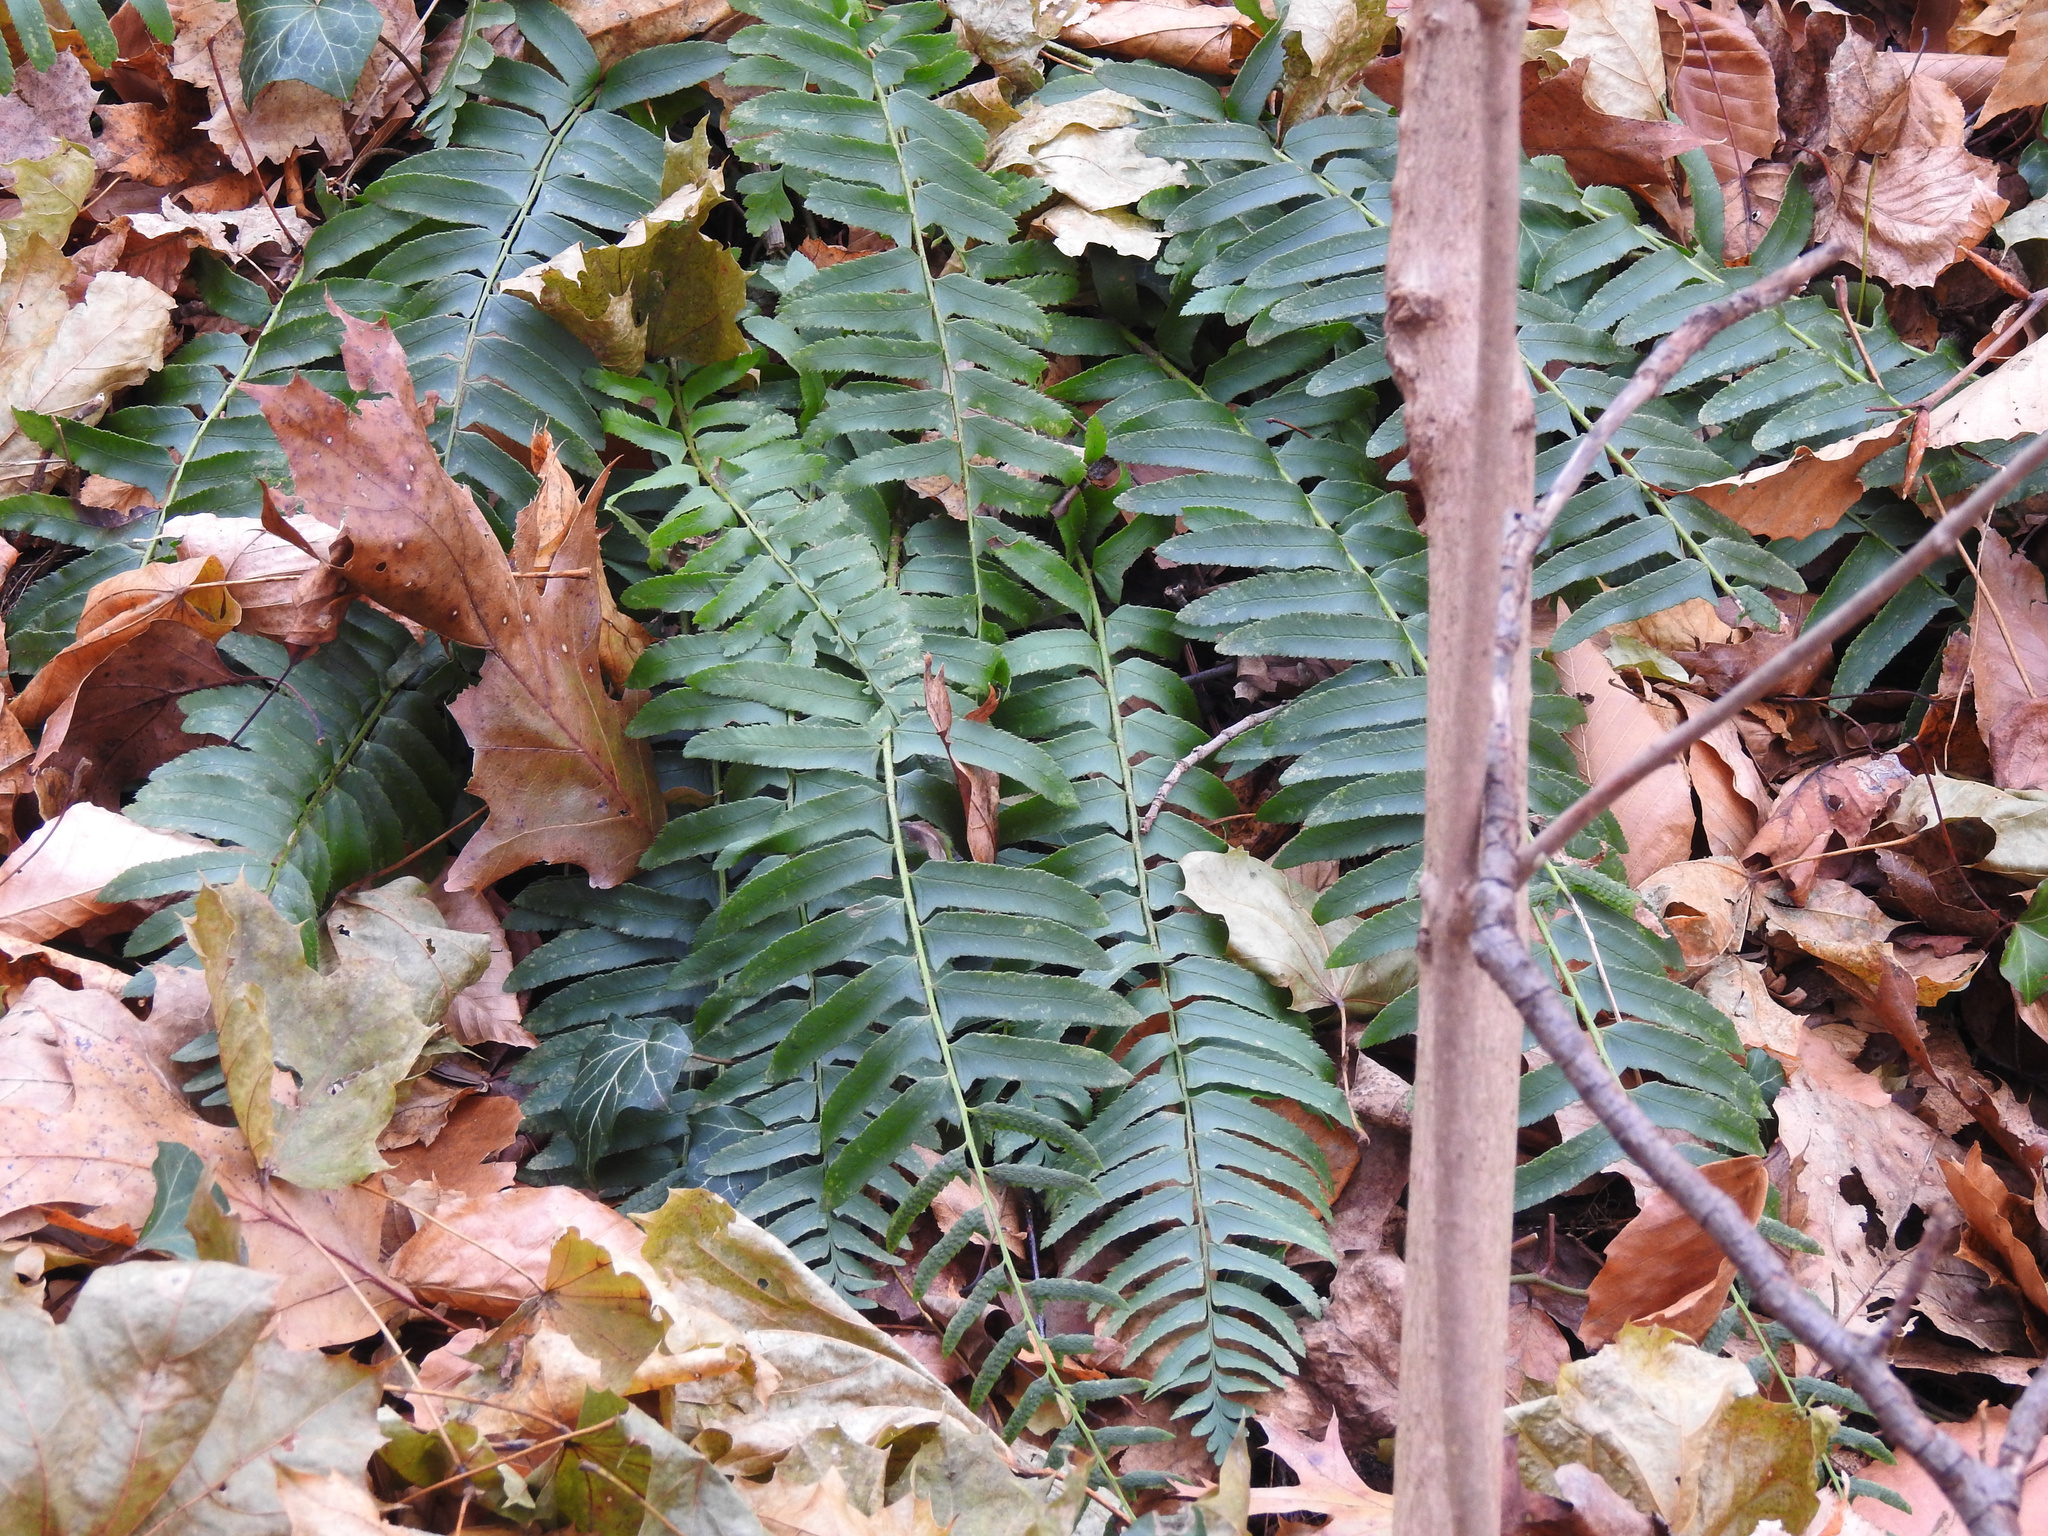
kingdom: Plantae
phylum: Tracheophyta
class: Polypodiopsida
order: Polypodiales
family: Dryopteridaceae
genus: Polystichum
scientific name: Polystichum acrostichoides
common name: Christmas fern
